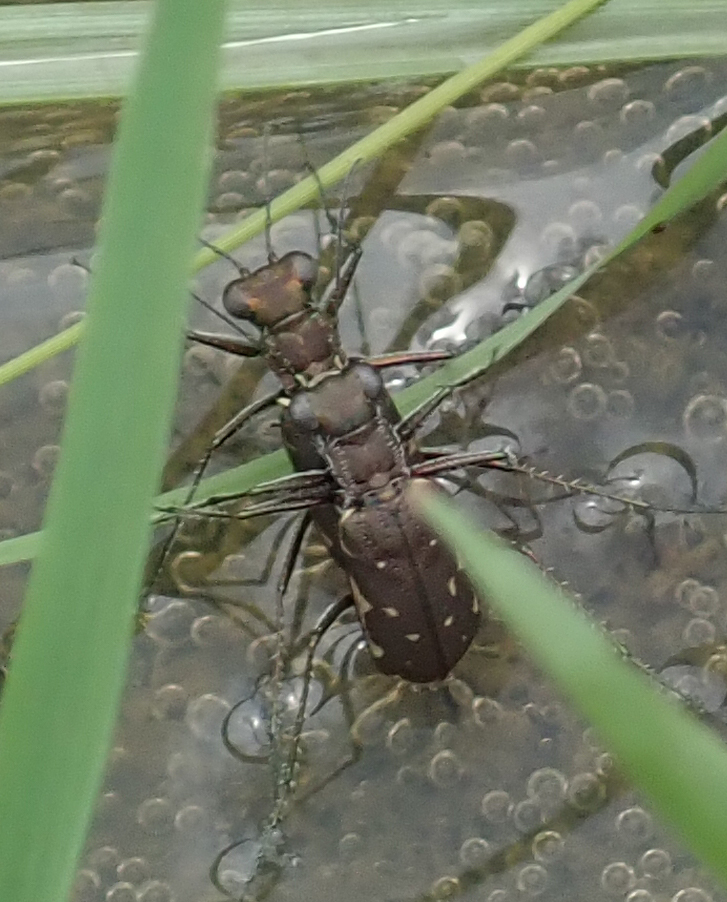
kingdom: Animalia
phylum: Arthropoda
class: Insecta
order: Coleoptera
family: Carabidae
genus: Myriochila
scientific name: Myriochila melancholica
